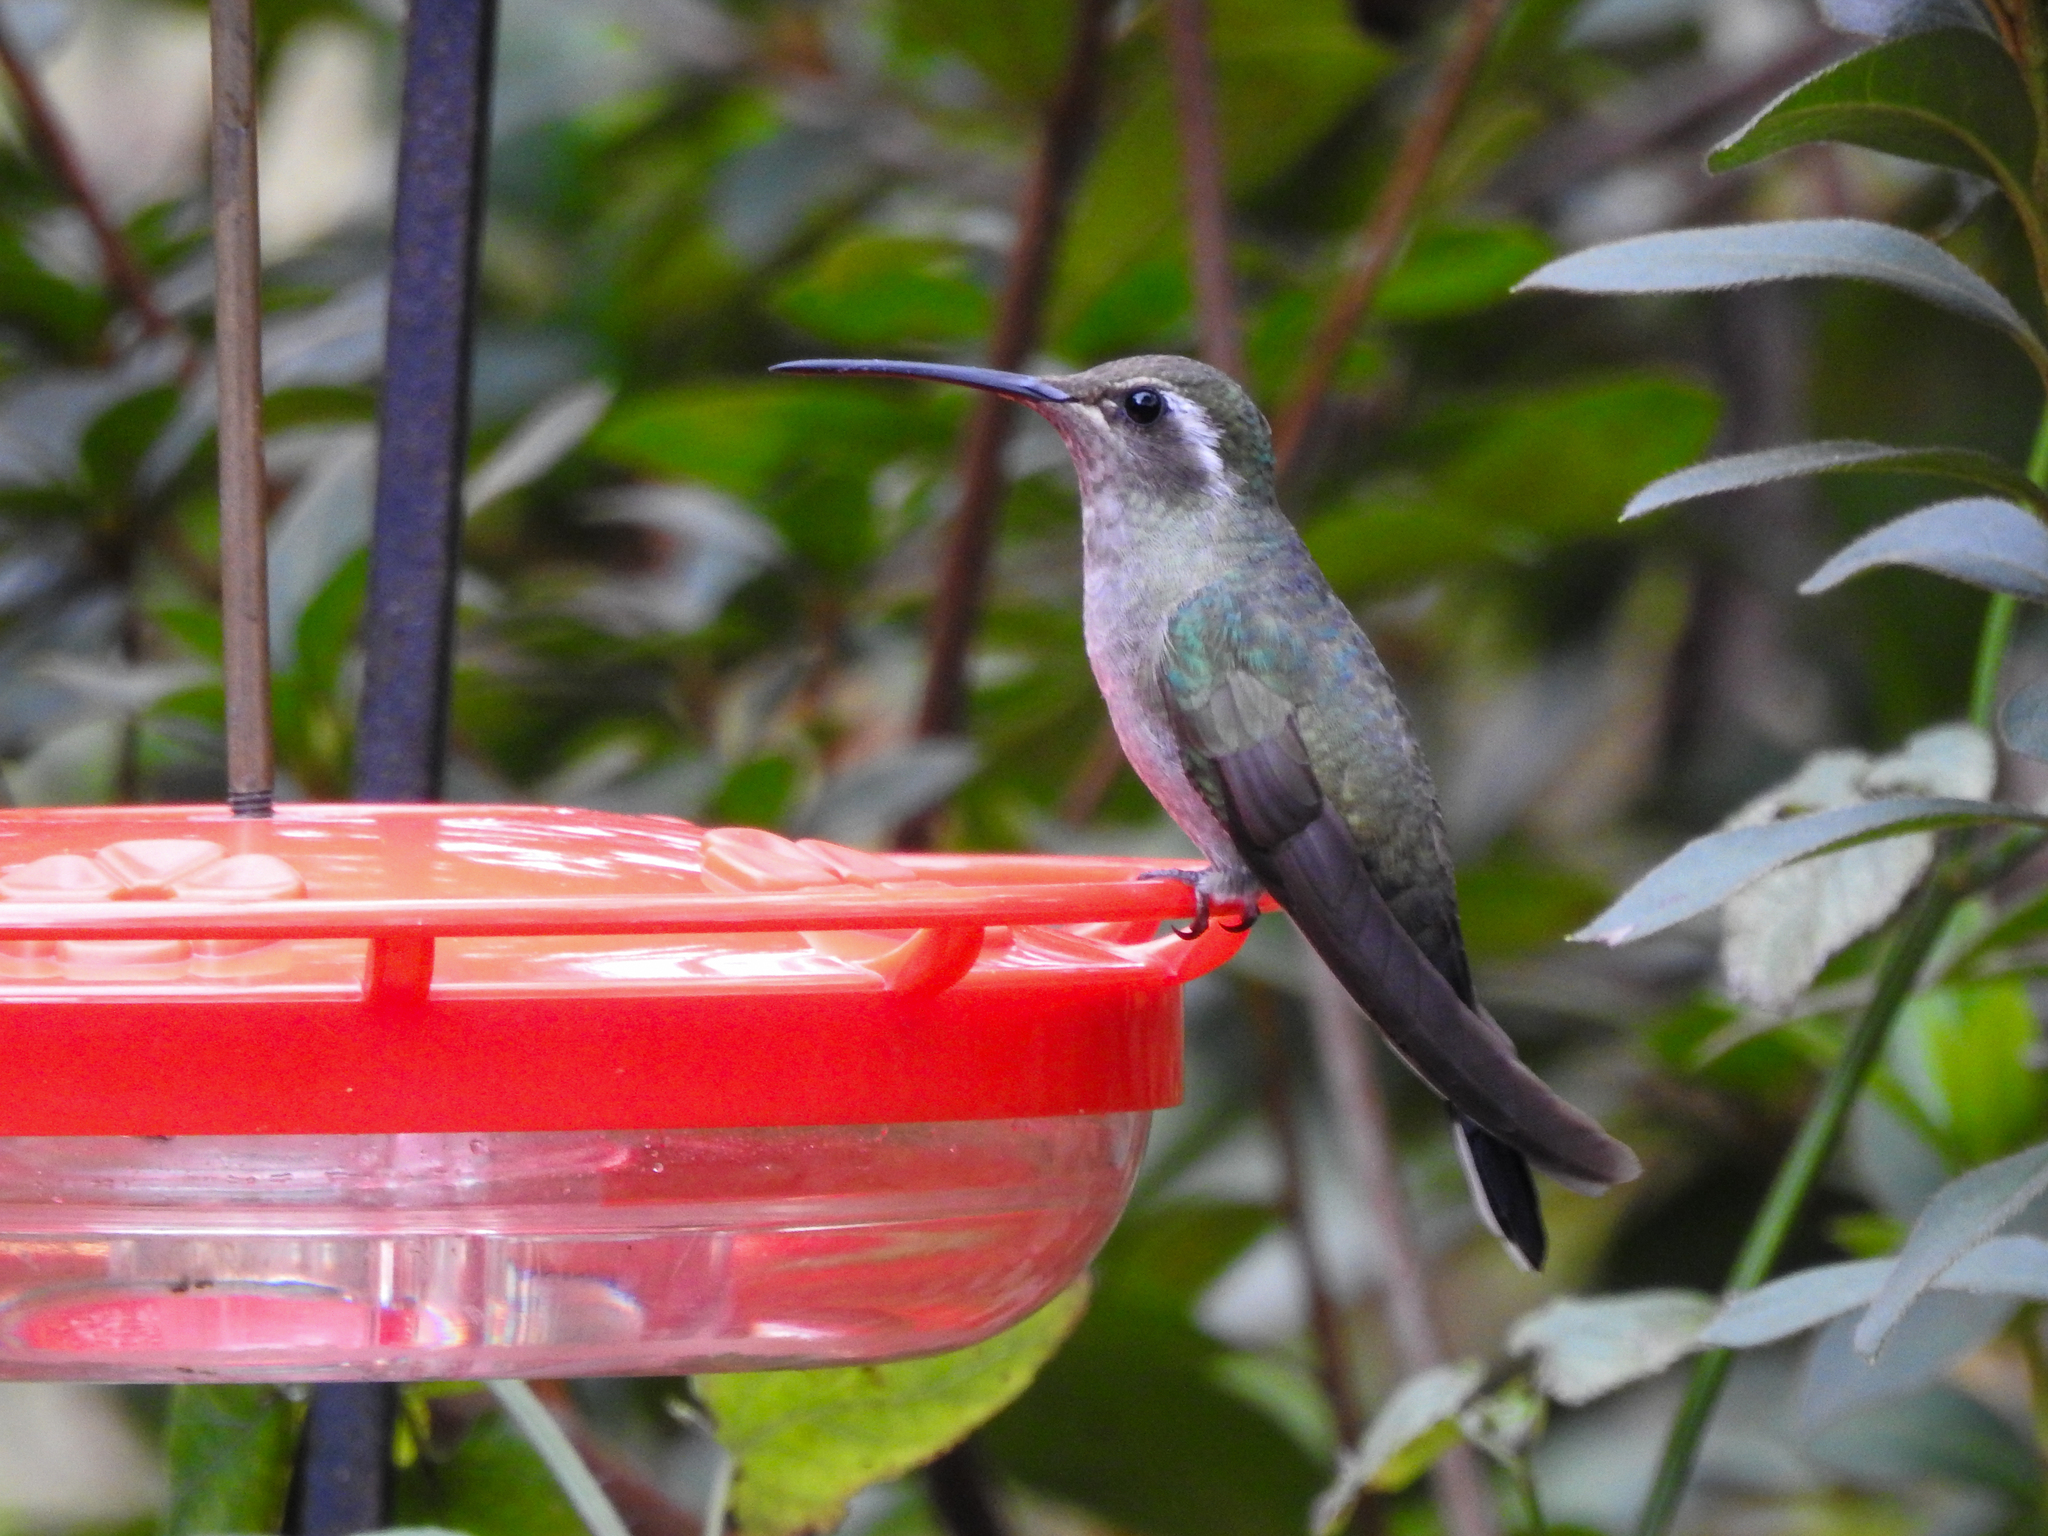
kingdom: Animalia
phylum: Chordata
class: Aves
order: Apodiformes
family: Trochilidae
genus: Lampornis
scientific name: Lampornis clemenciae
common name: Blue-throated mountaingem
